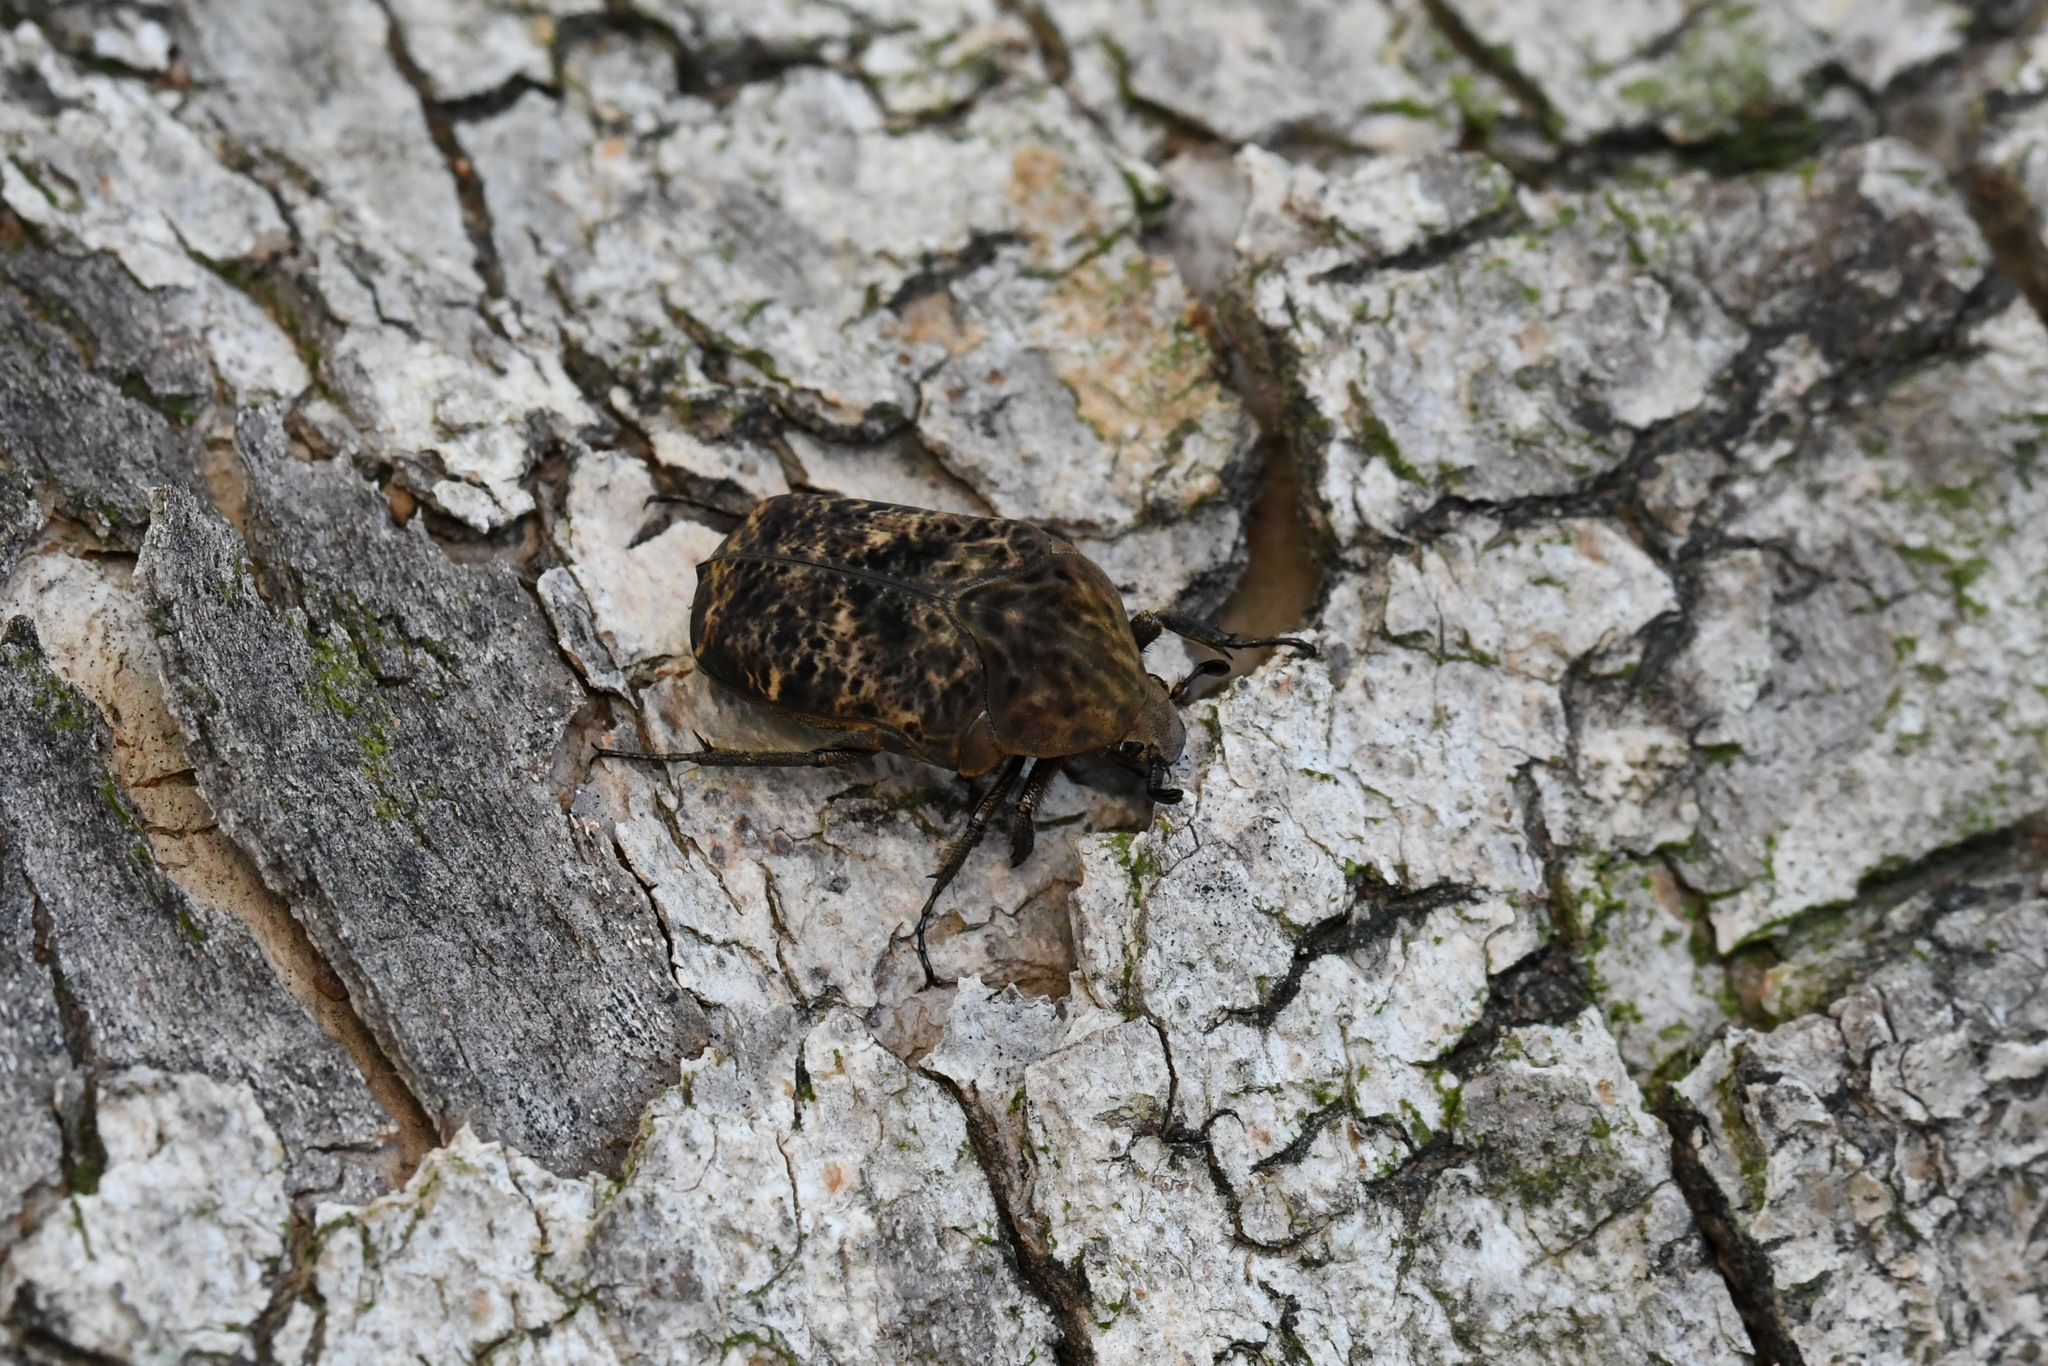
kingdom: Animalia
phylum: Arthropoda
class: Insecta
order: Coleoptera
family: Scarabaeidae
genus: Gymnetis
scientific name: Gymnetis hebraica
